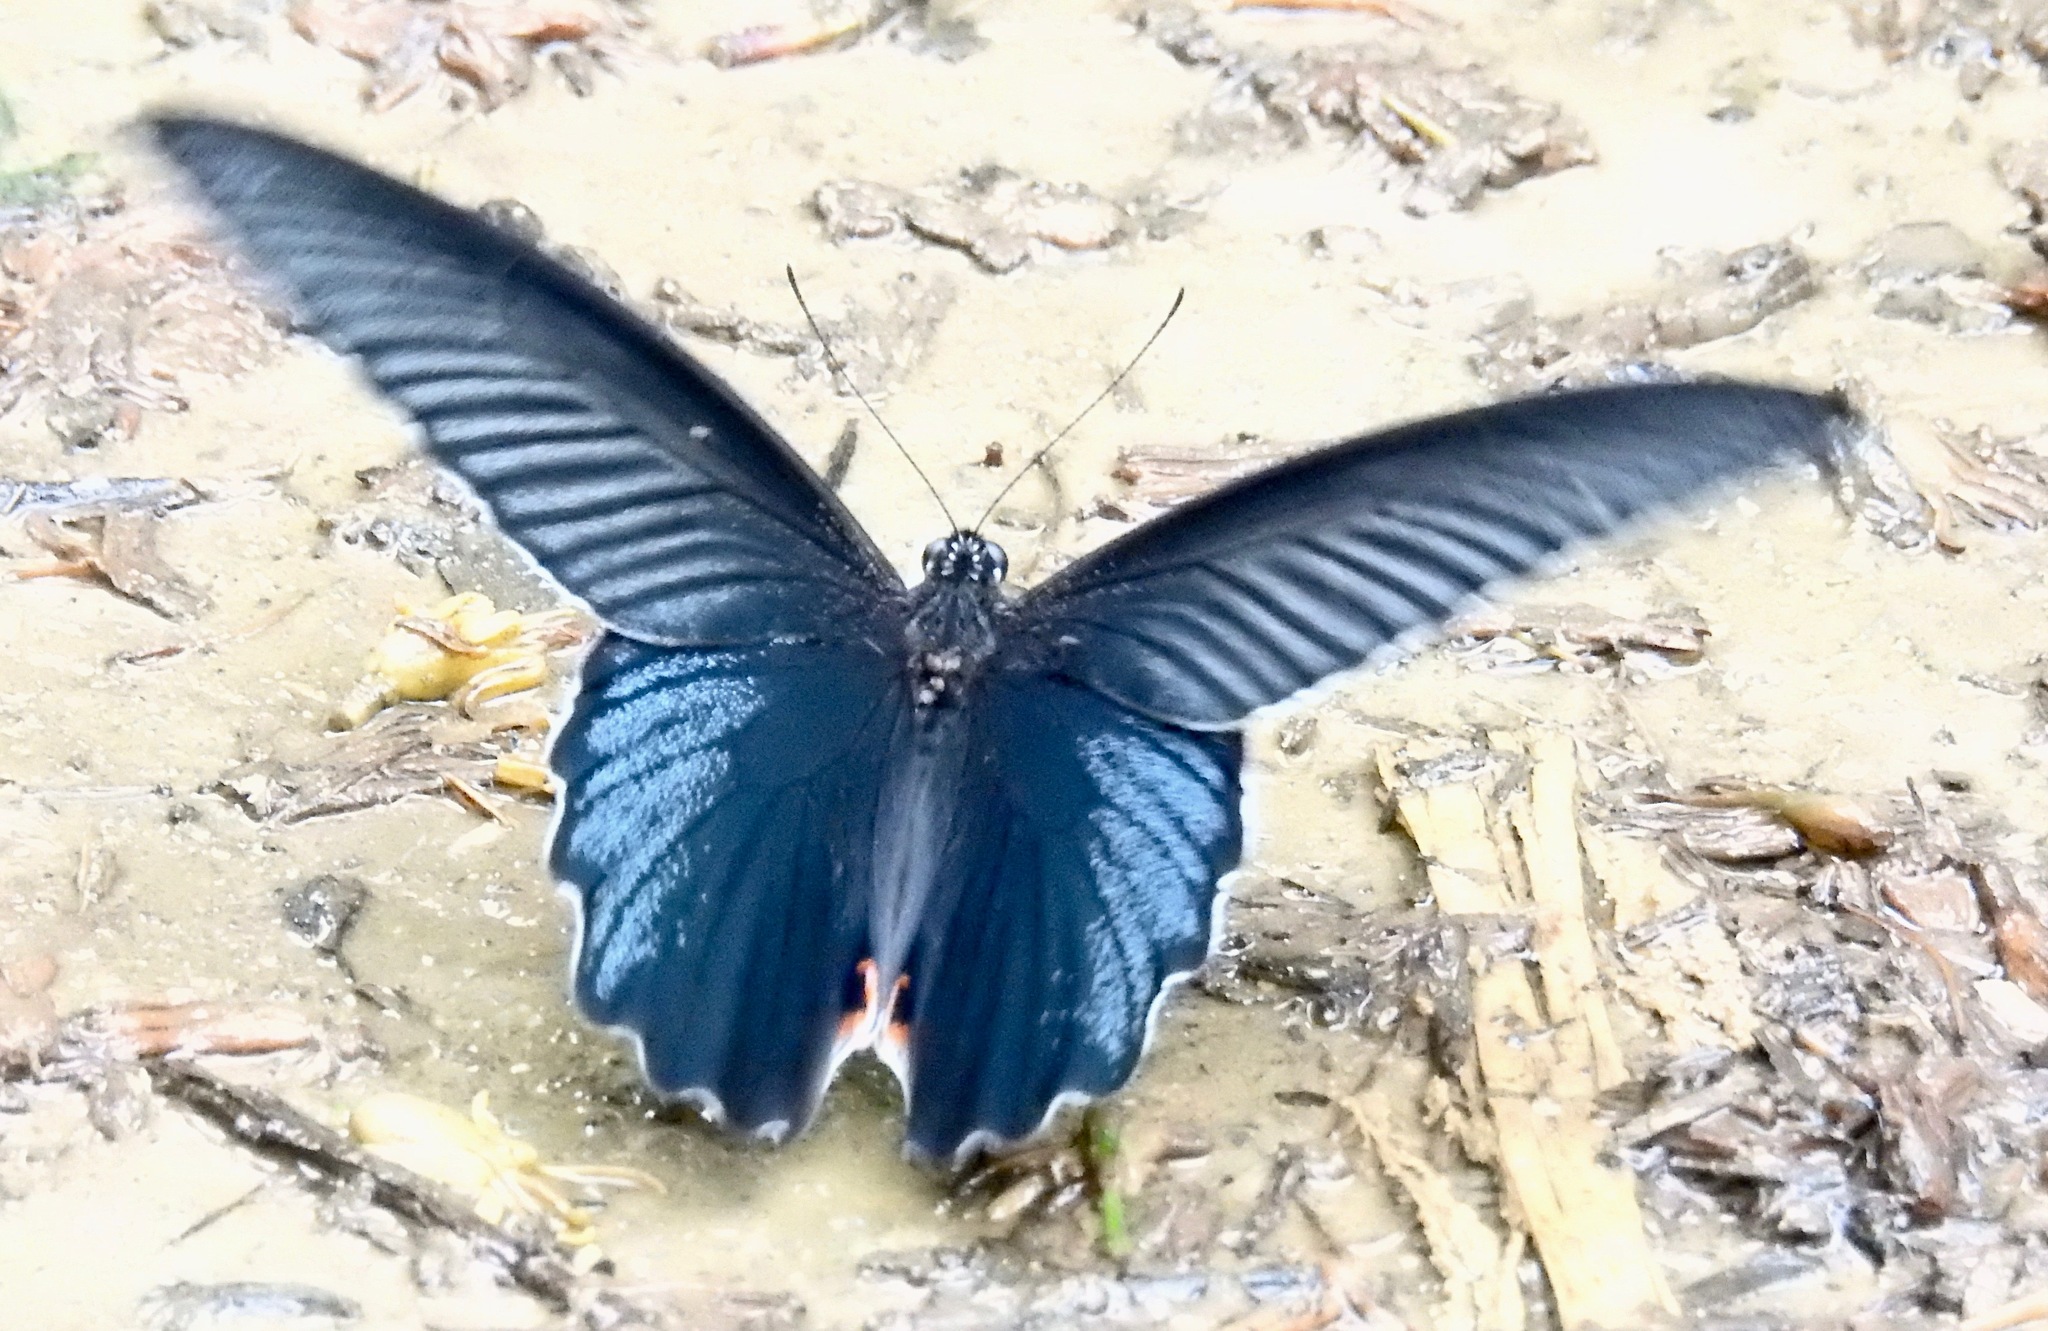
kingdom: Animalia
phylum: Arthropoda
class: Insecta
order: Lepidoptera
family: Papilionidae
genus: Papilio
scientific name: Papilio protenor
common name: Spangle
